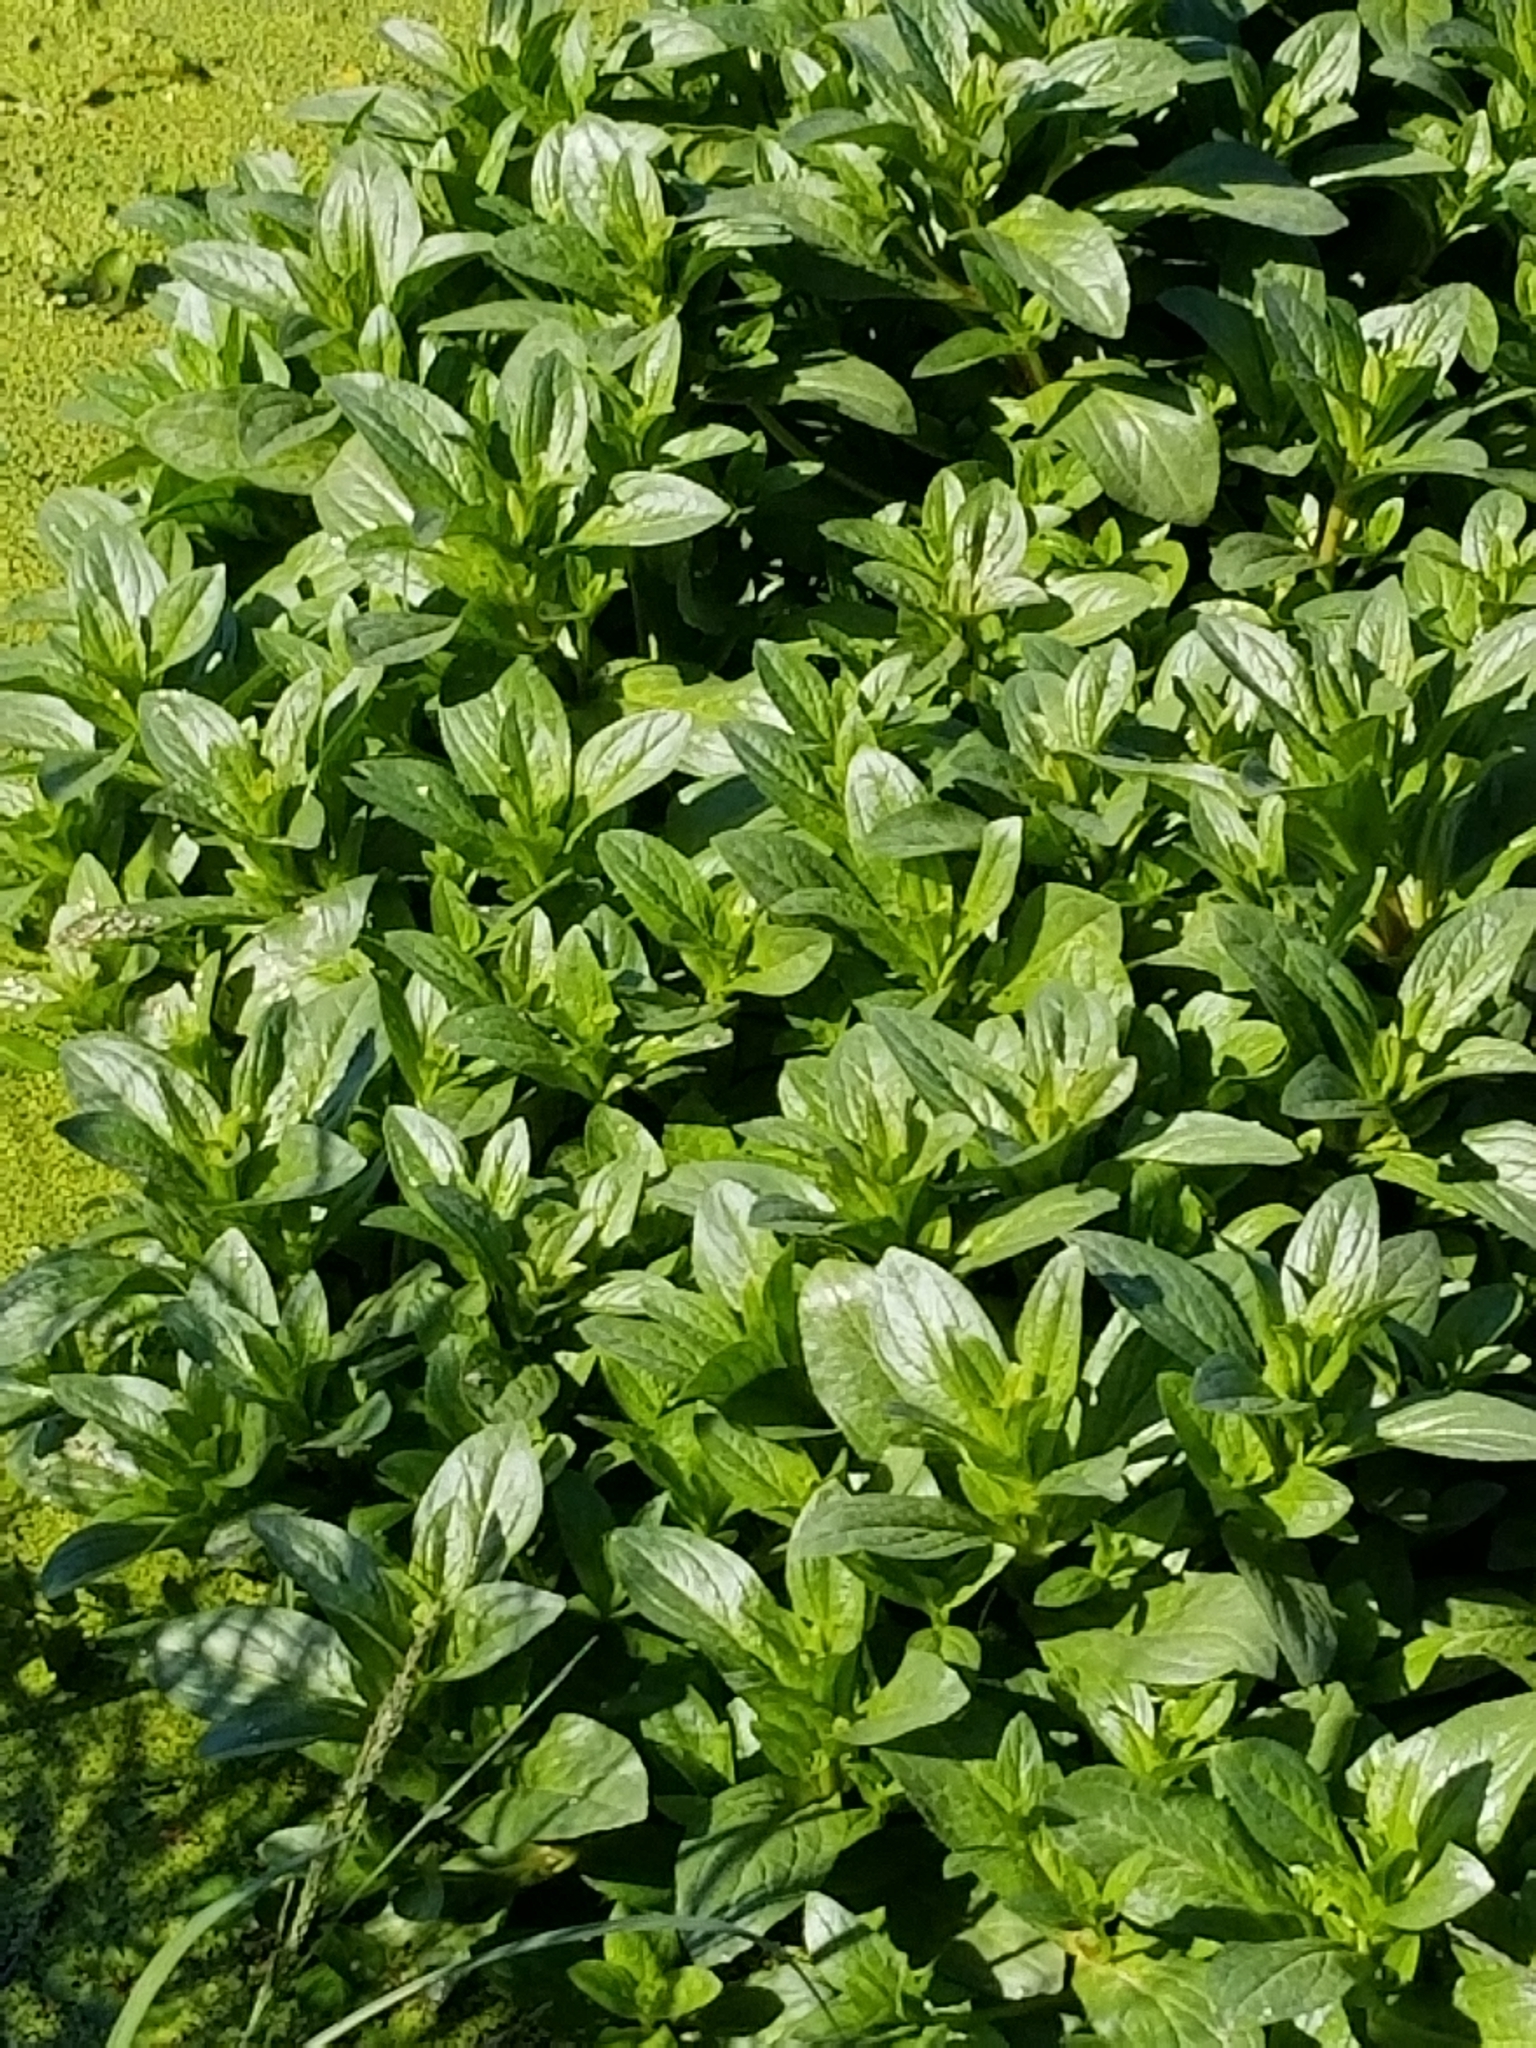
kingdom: Plantae
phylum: Tracheophyta
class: Magnoliopsida
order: Lamiales
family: Plantaginaceae
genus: Veronica
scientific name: Veronica anagallis-aquatica
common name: Water speedwell
